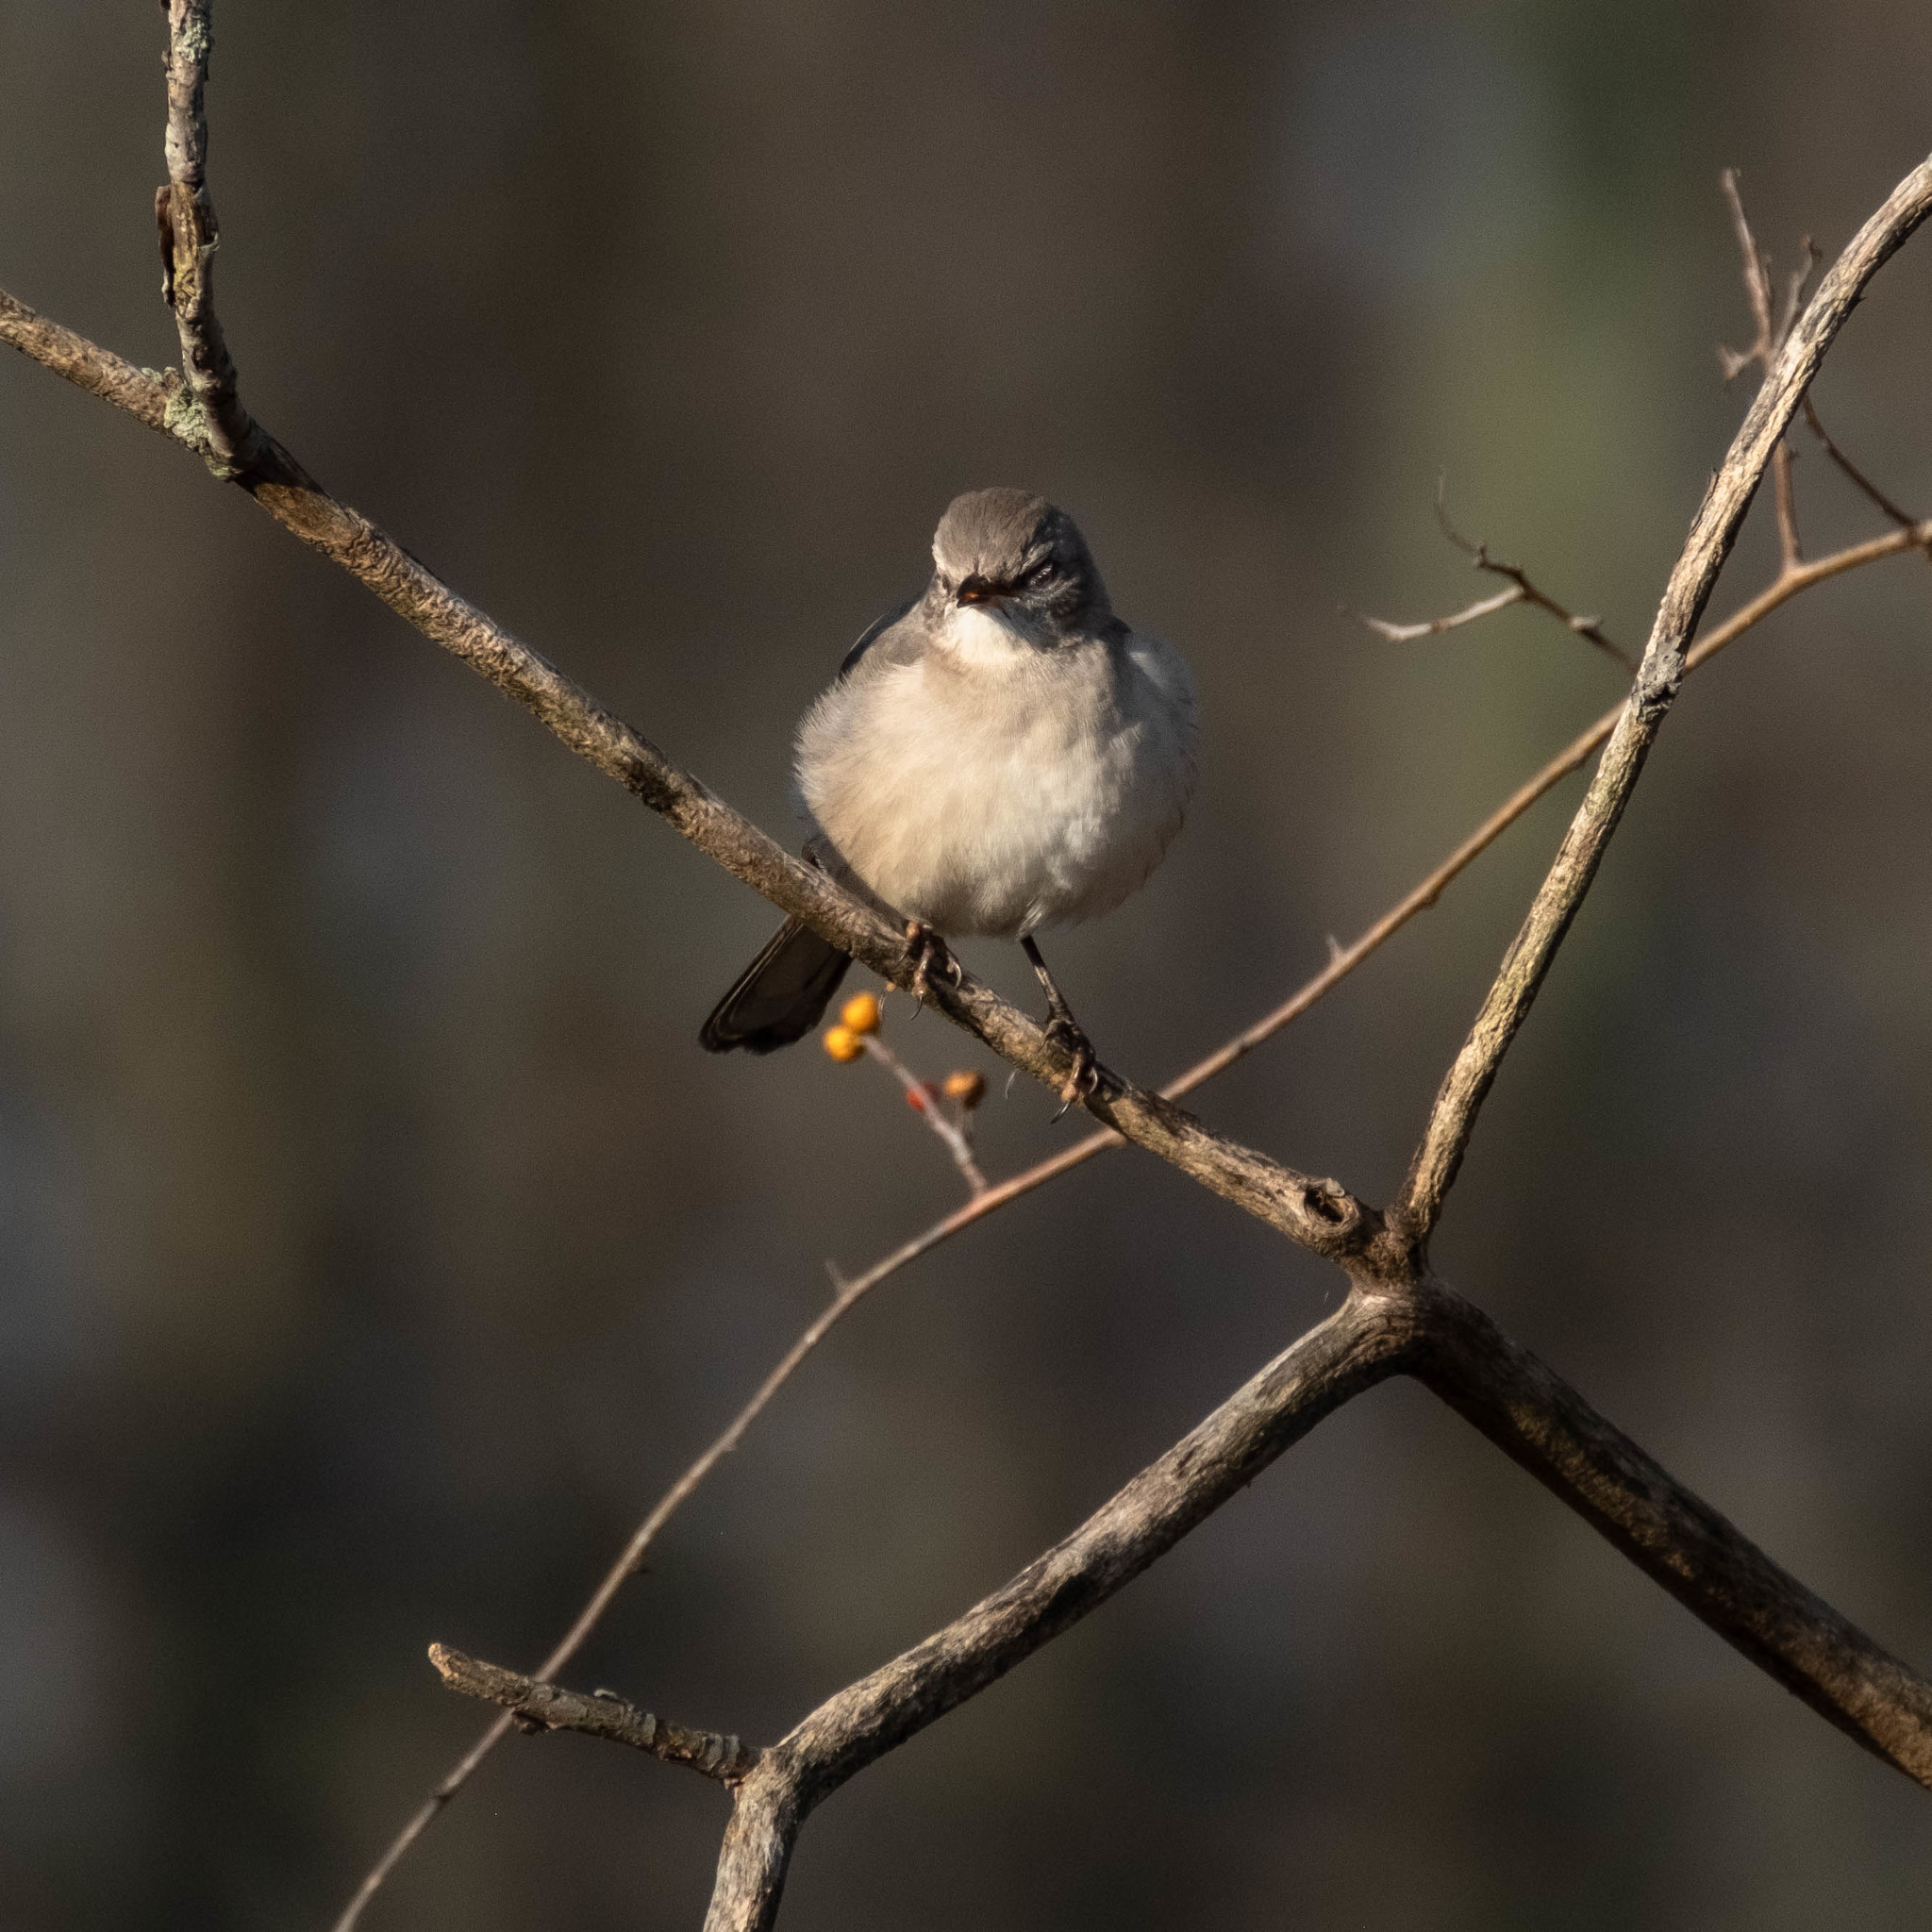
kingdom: Plantae
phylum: Tracheophyta
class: Magnoliopsida
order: Celastrales
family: Celastraceae
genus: Celastrus
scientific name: Celastrus orbiculatus
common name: Oriental bittersweet
